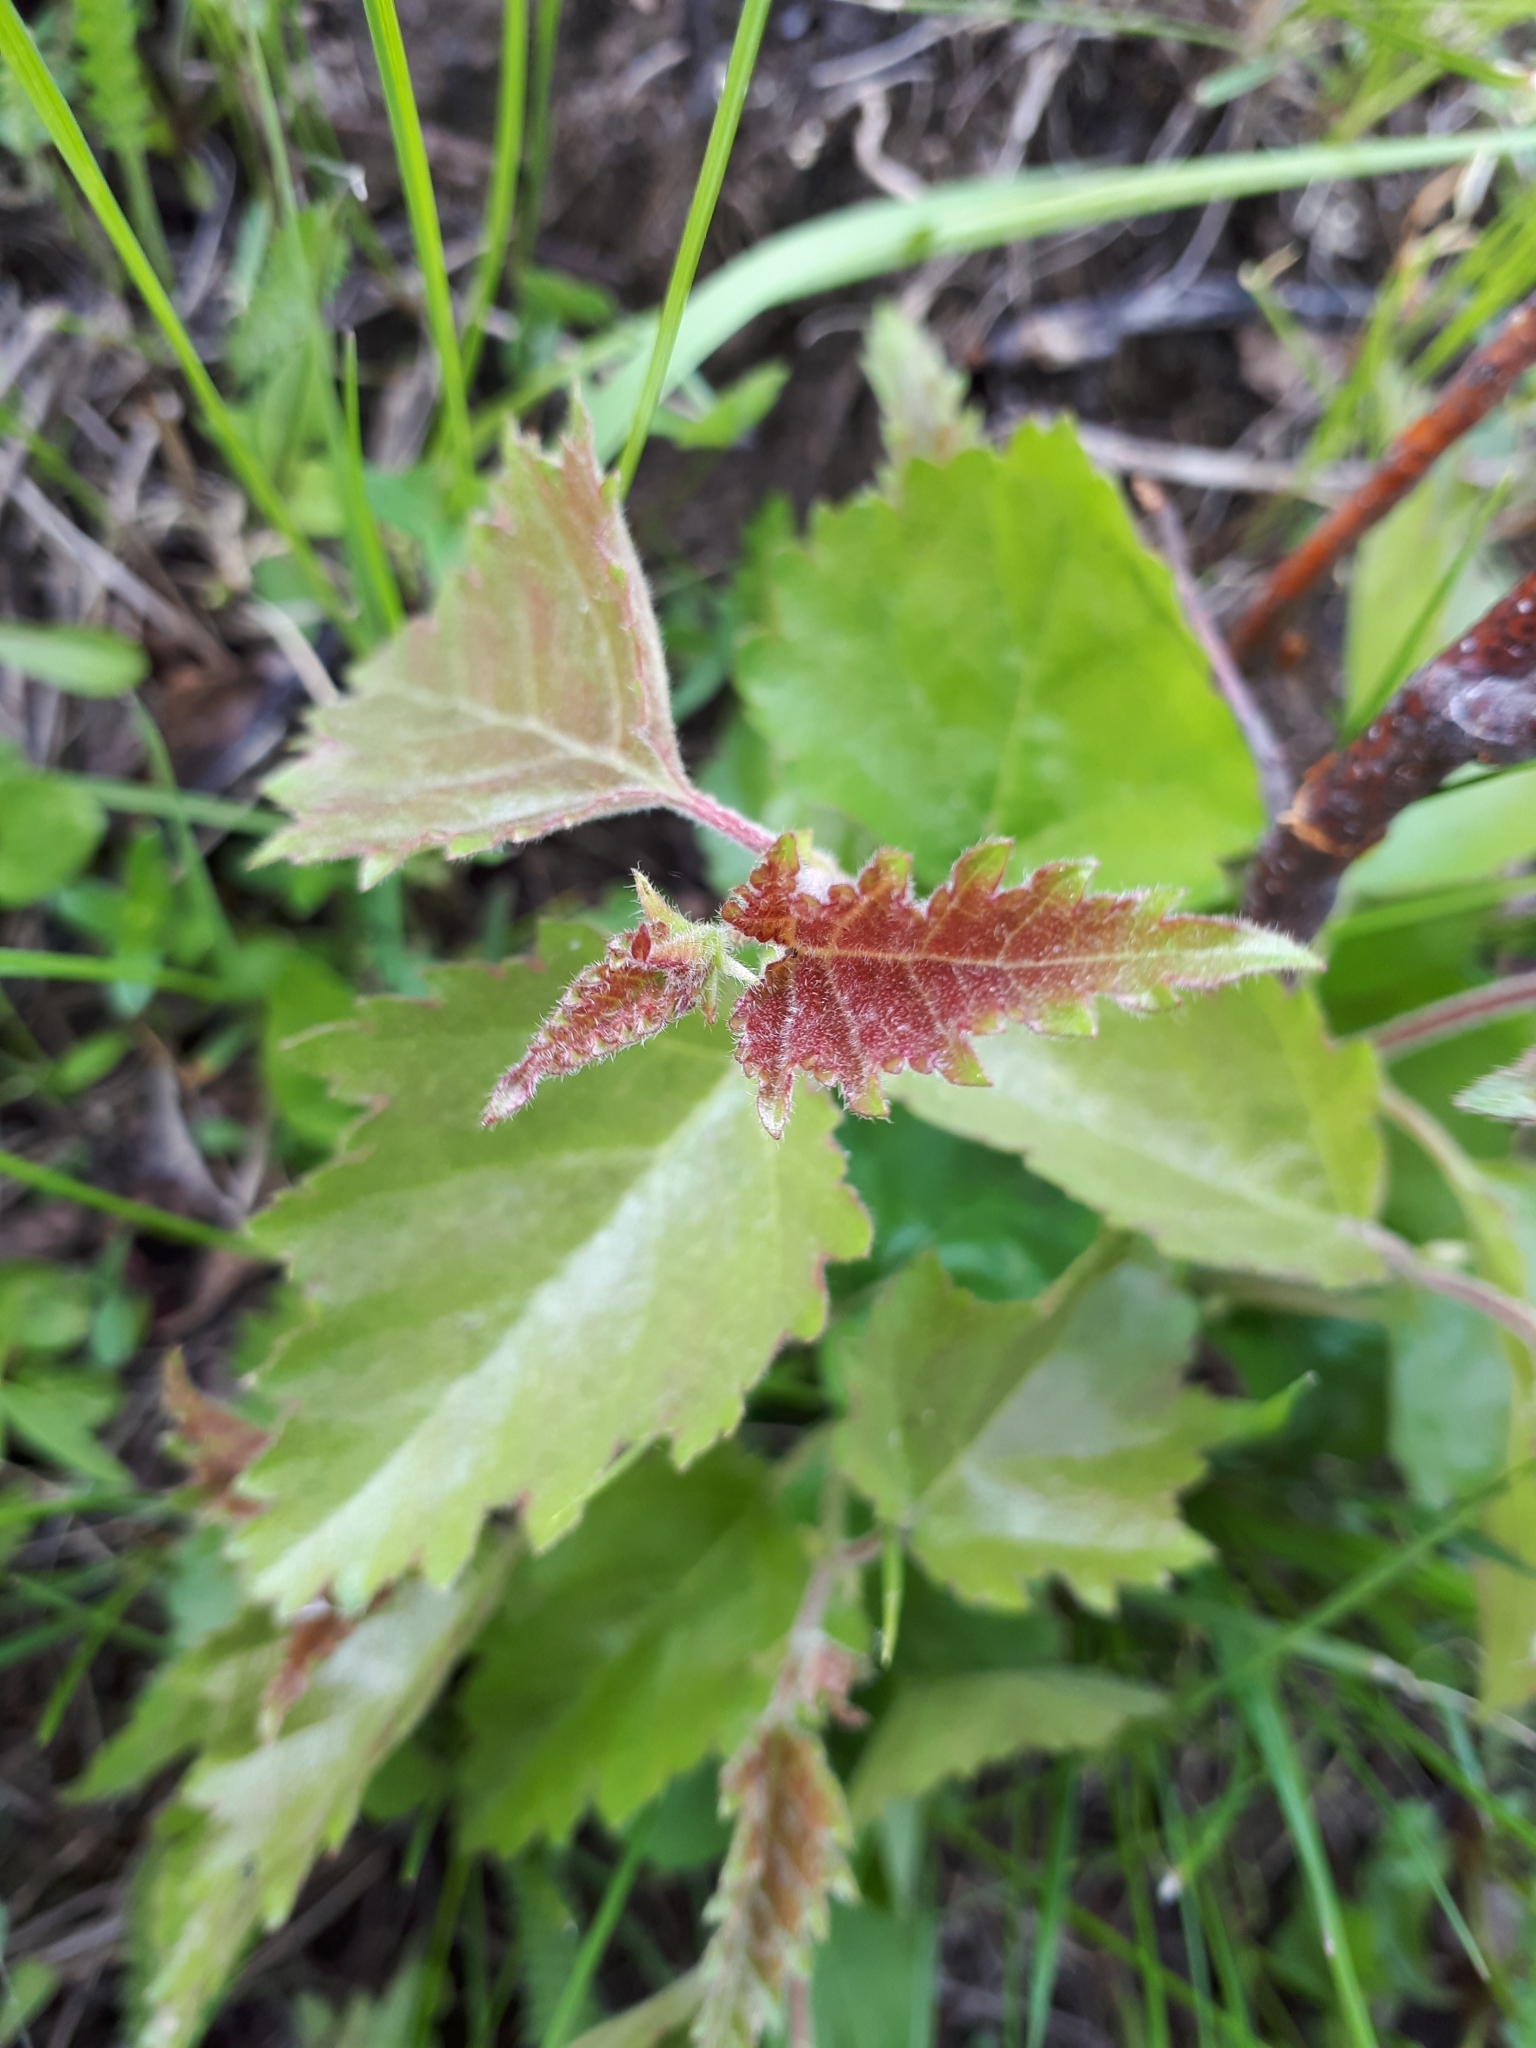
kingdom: Plantae
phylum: Tracheophyta
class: Magnoliopsida
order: Fagales
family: Betulaceae
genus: Betula
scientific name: Betula pubescens
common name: Downy birch
